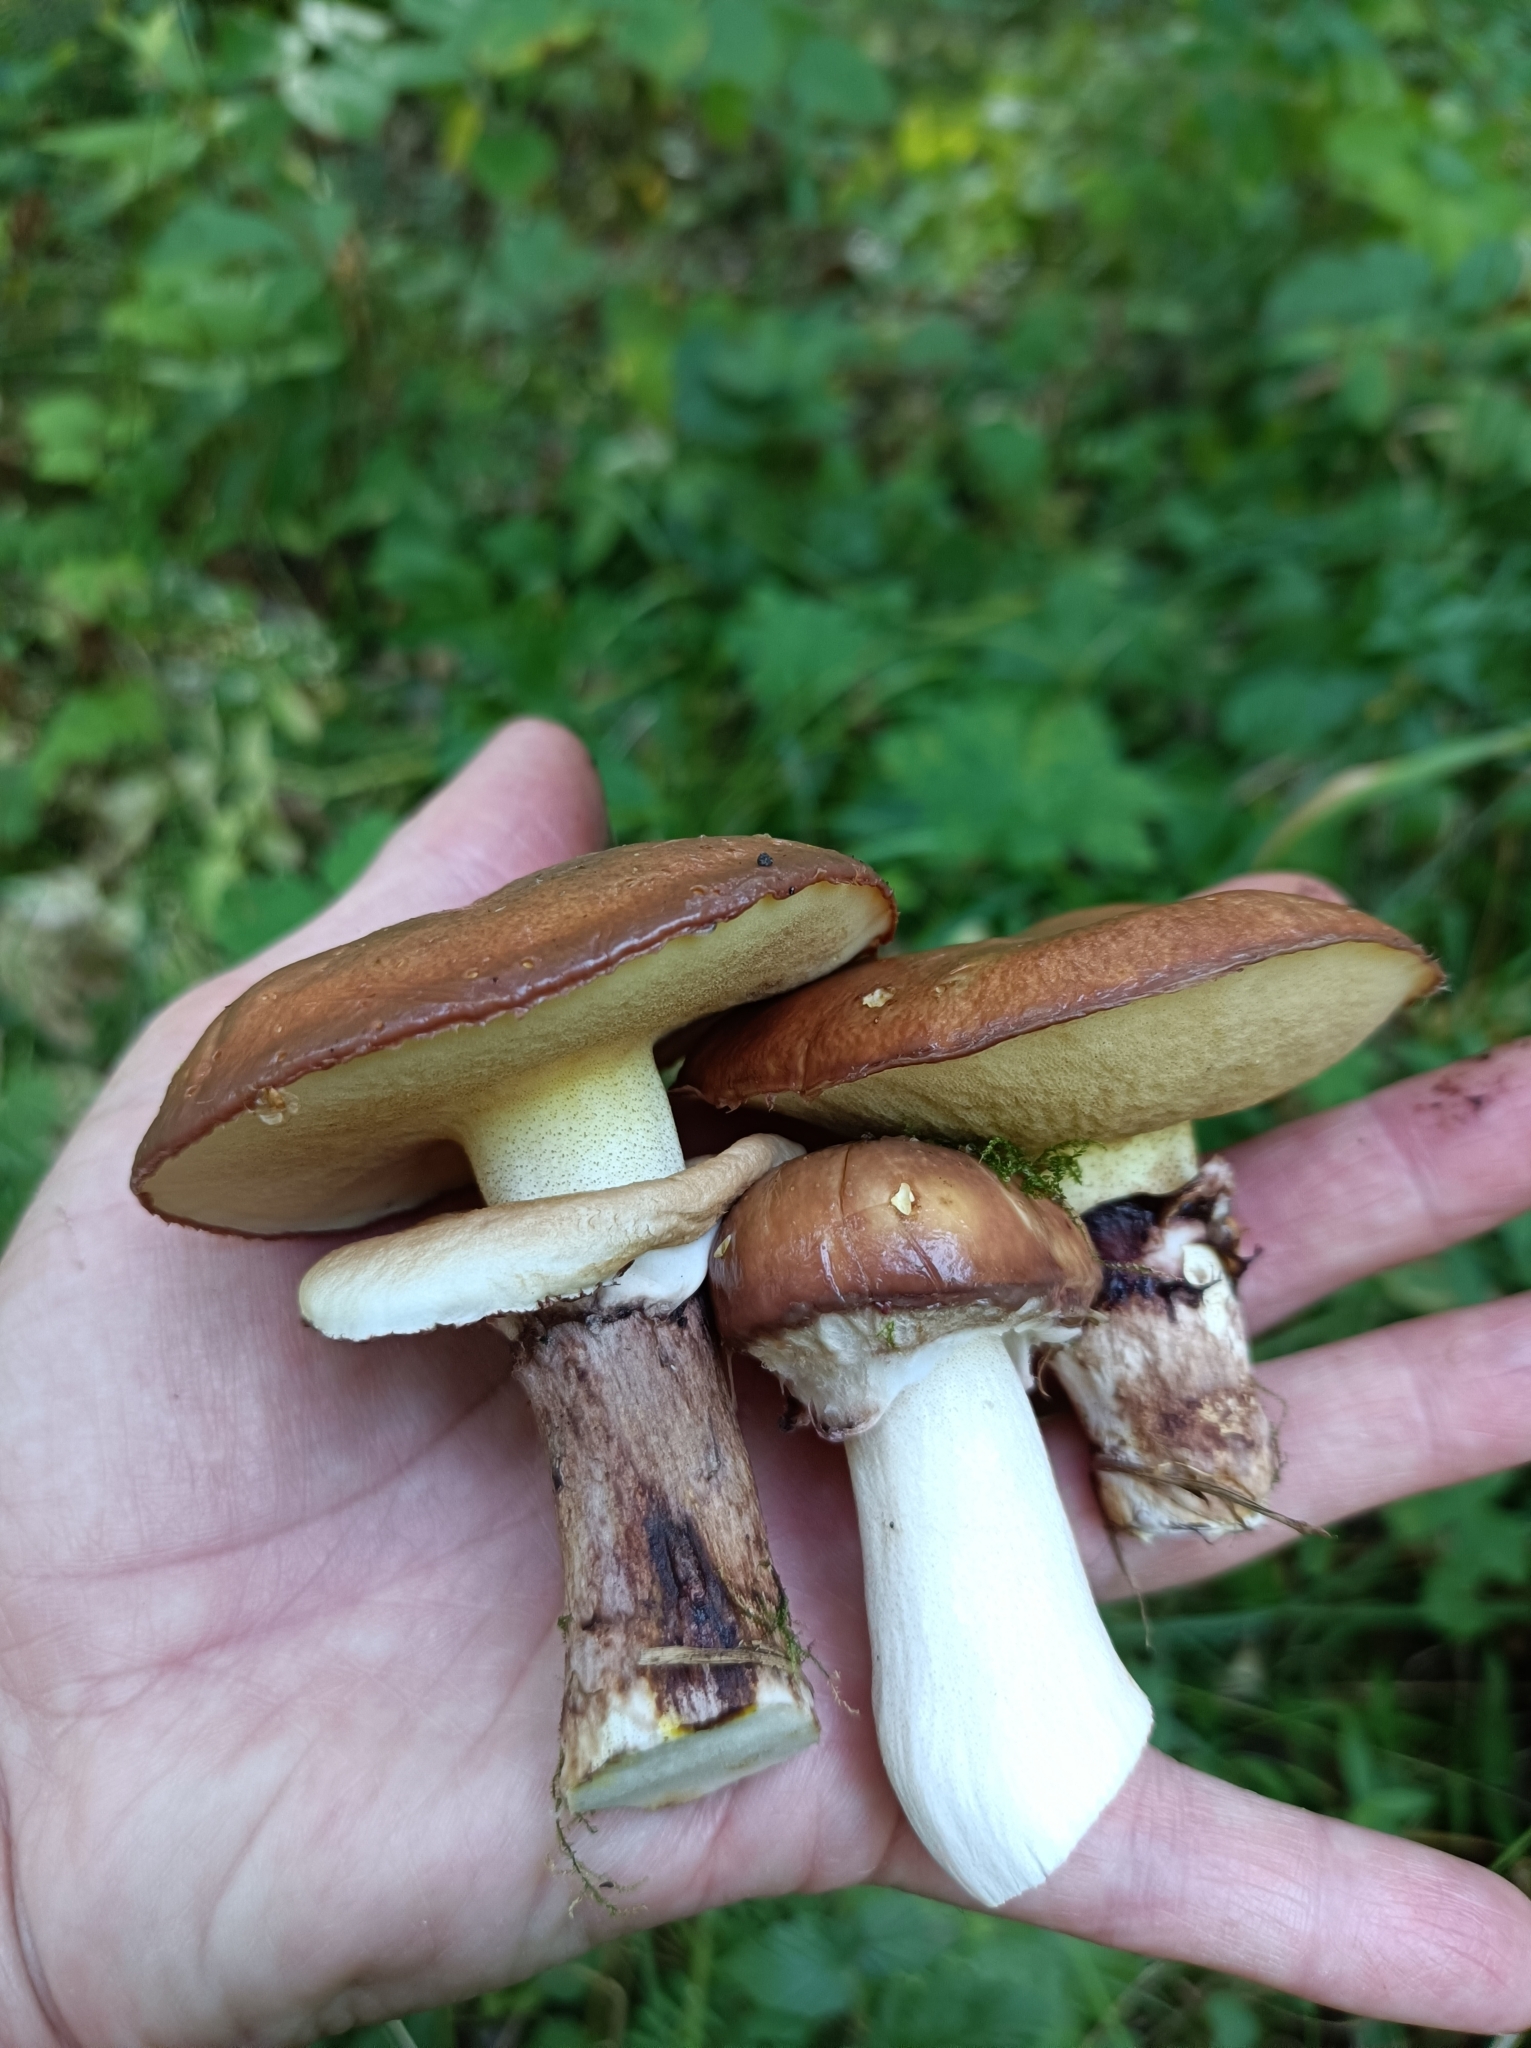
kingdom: Fungi
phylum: Basidiomycota
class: Agaricomycetes
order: Boletales
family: Suillaceae
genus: Suillus
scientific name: Suillus luteus
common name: Slippery jack
